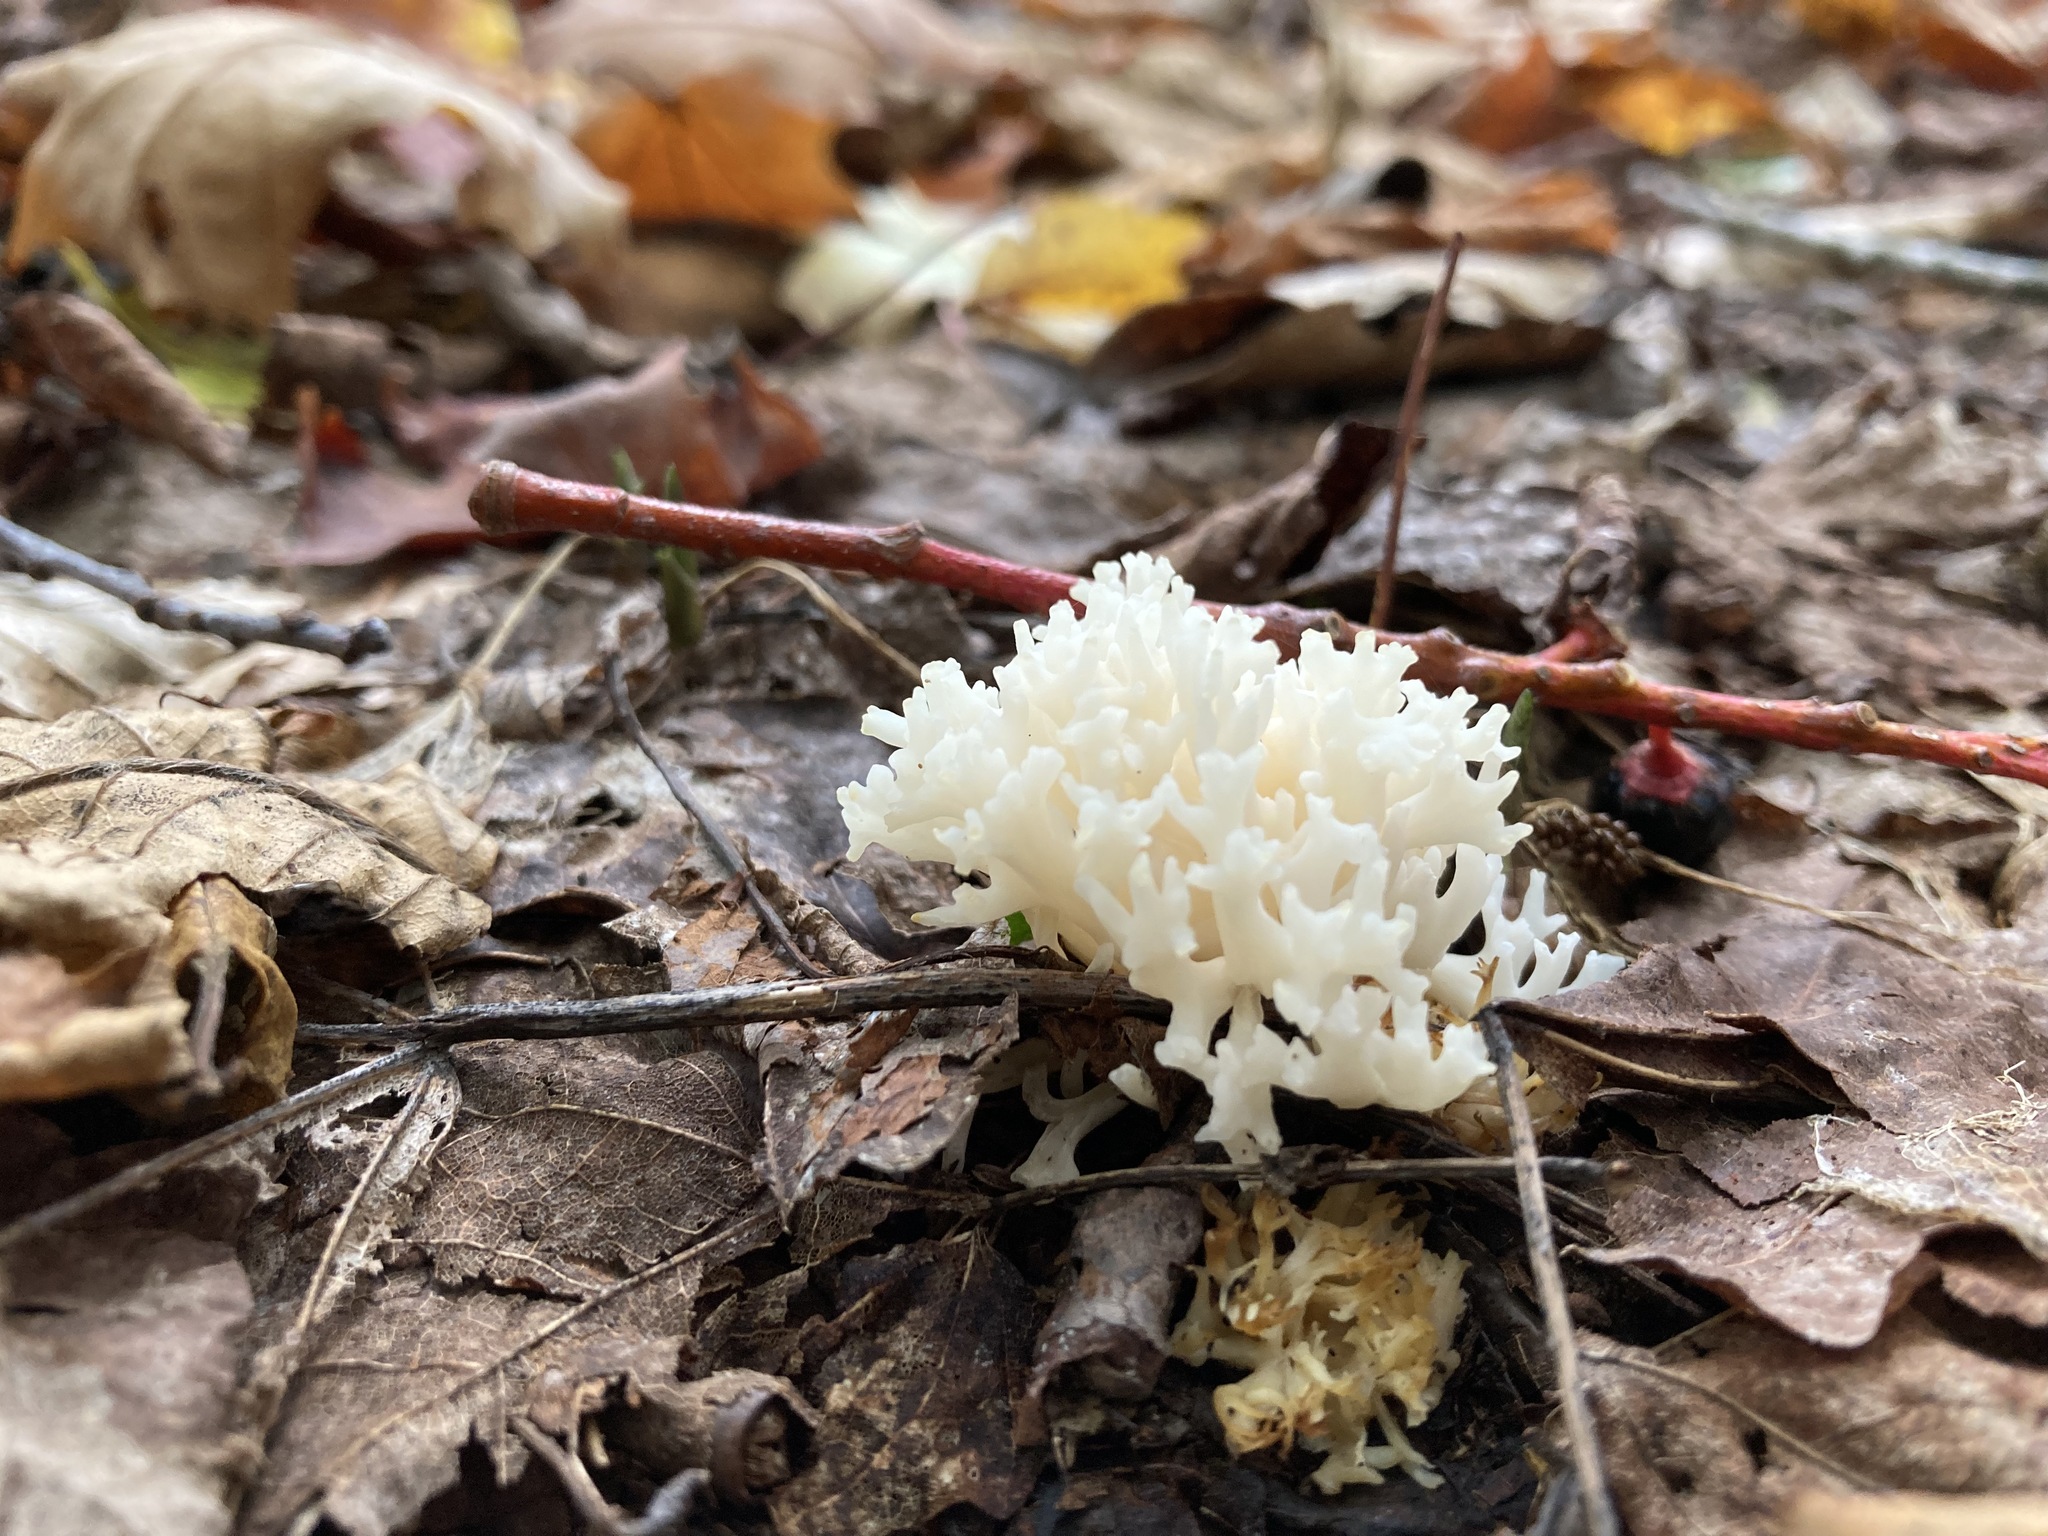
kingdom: Fungi
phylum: Basidiomycota
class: Agaricomycetes
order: Agaricales
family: Clavariaceae
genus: Ramariopsis
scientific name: Ramariopsis kunzei
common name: Ivory coral
